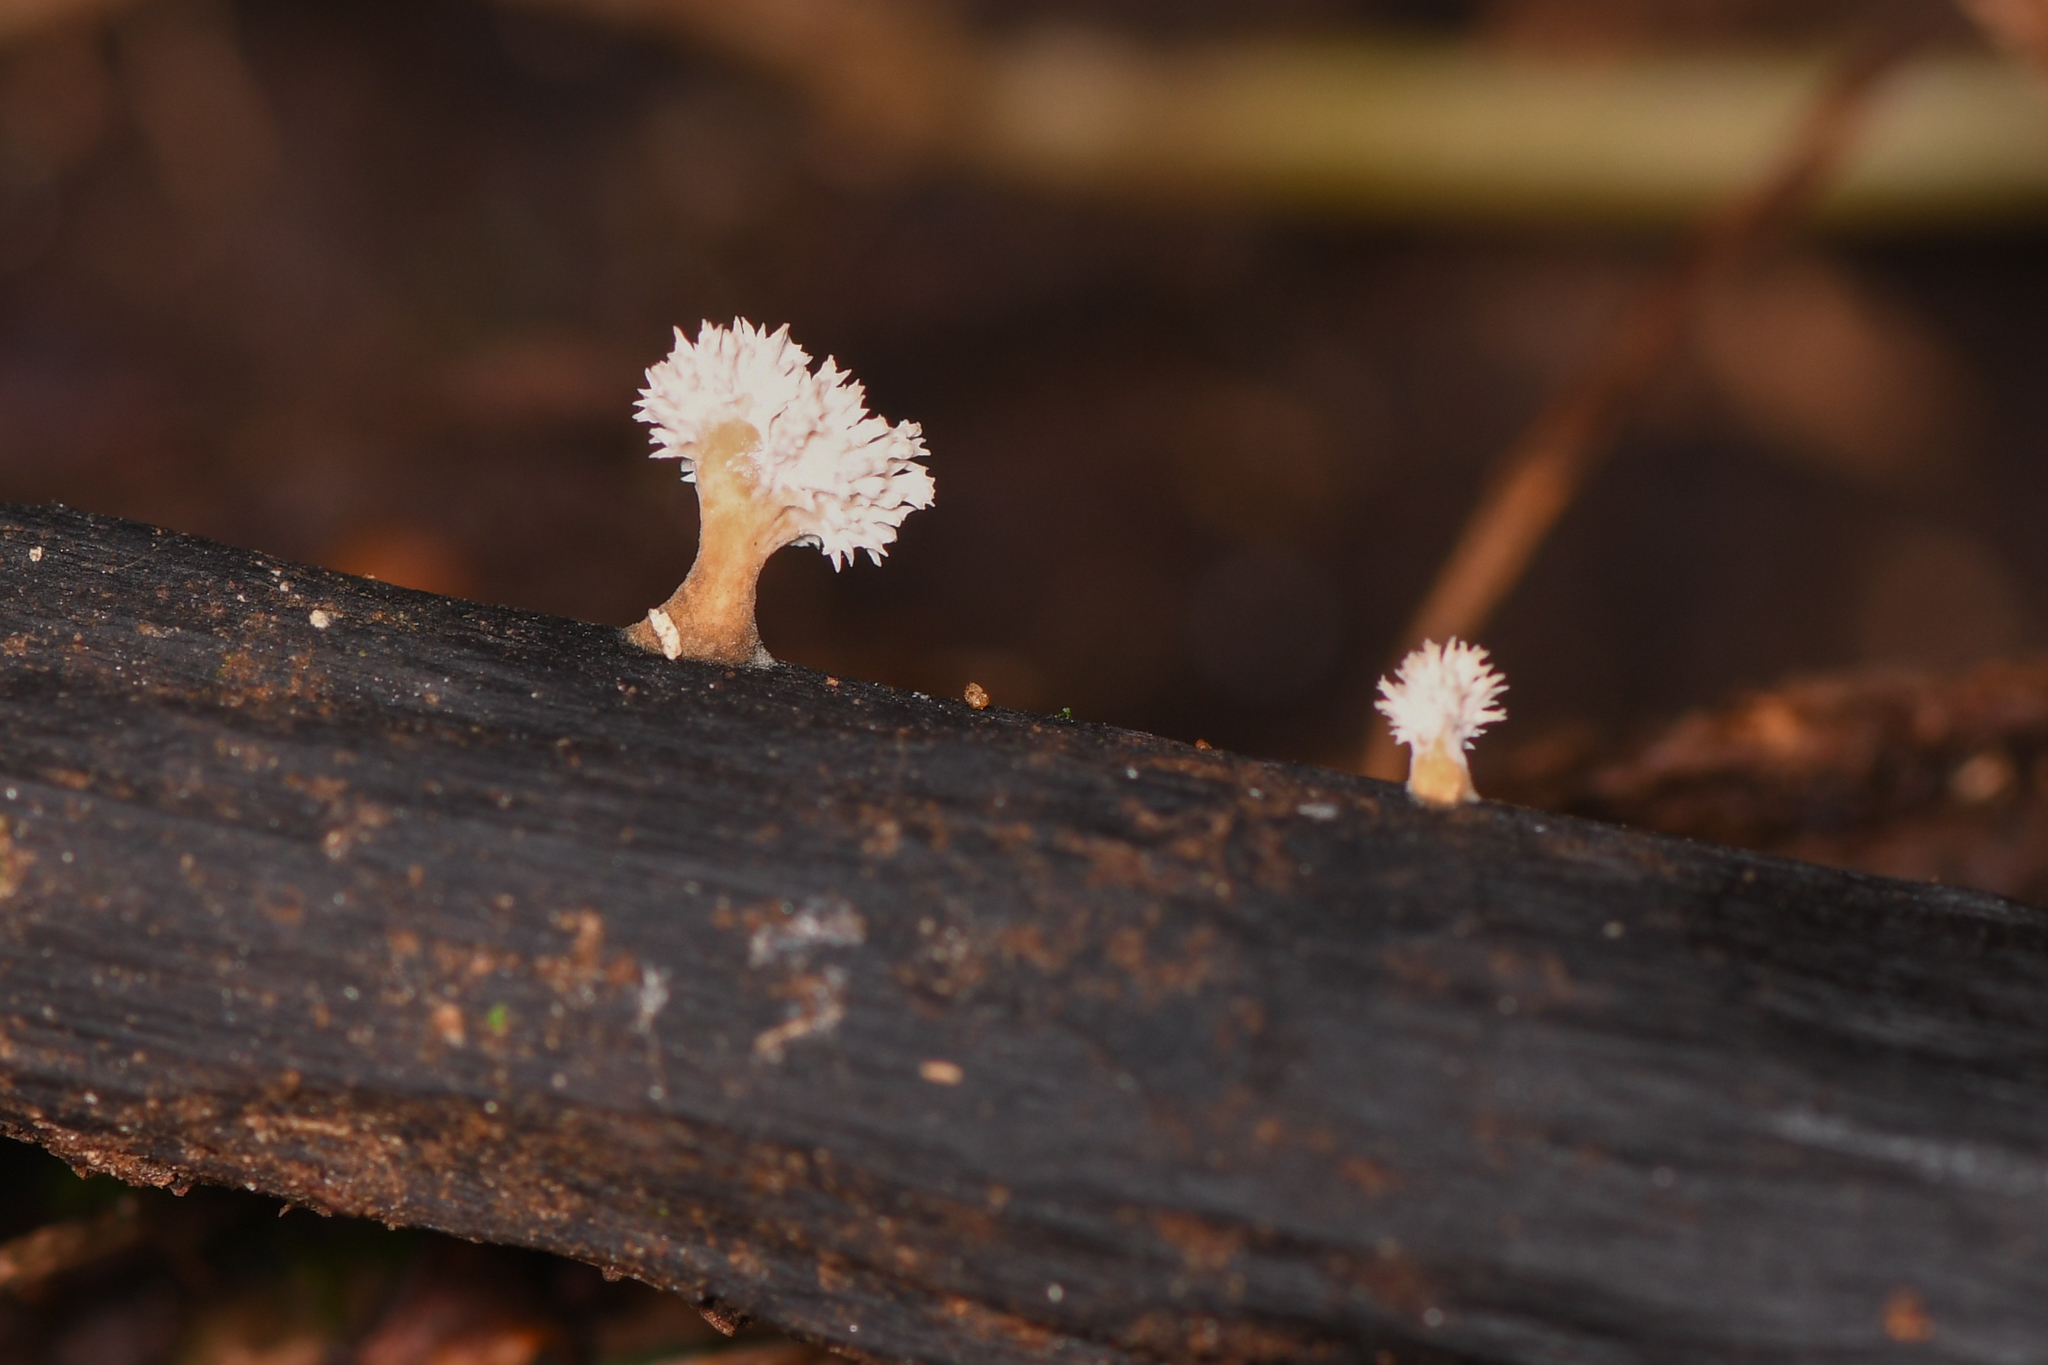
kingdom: Fungi
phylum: Ascomycota
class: Sordariomycetes
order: Xylariales
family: Xylariaceae
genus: Xylaria
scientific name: Xylaria cubensis
